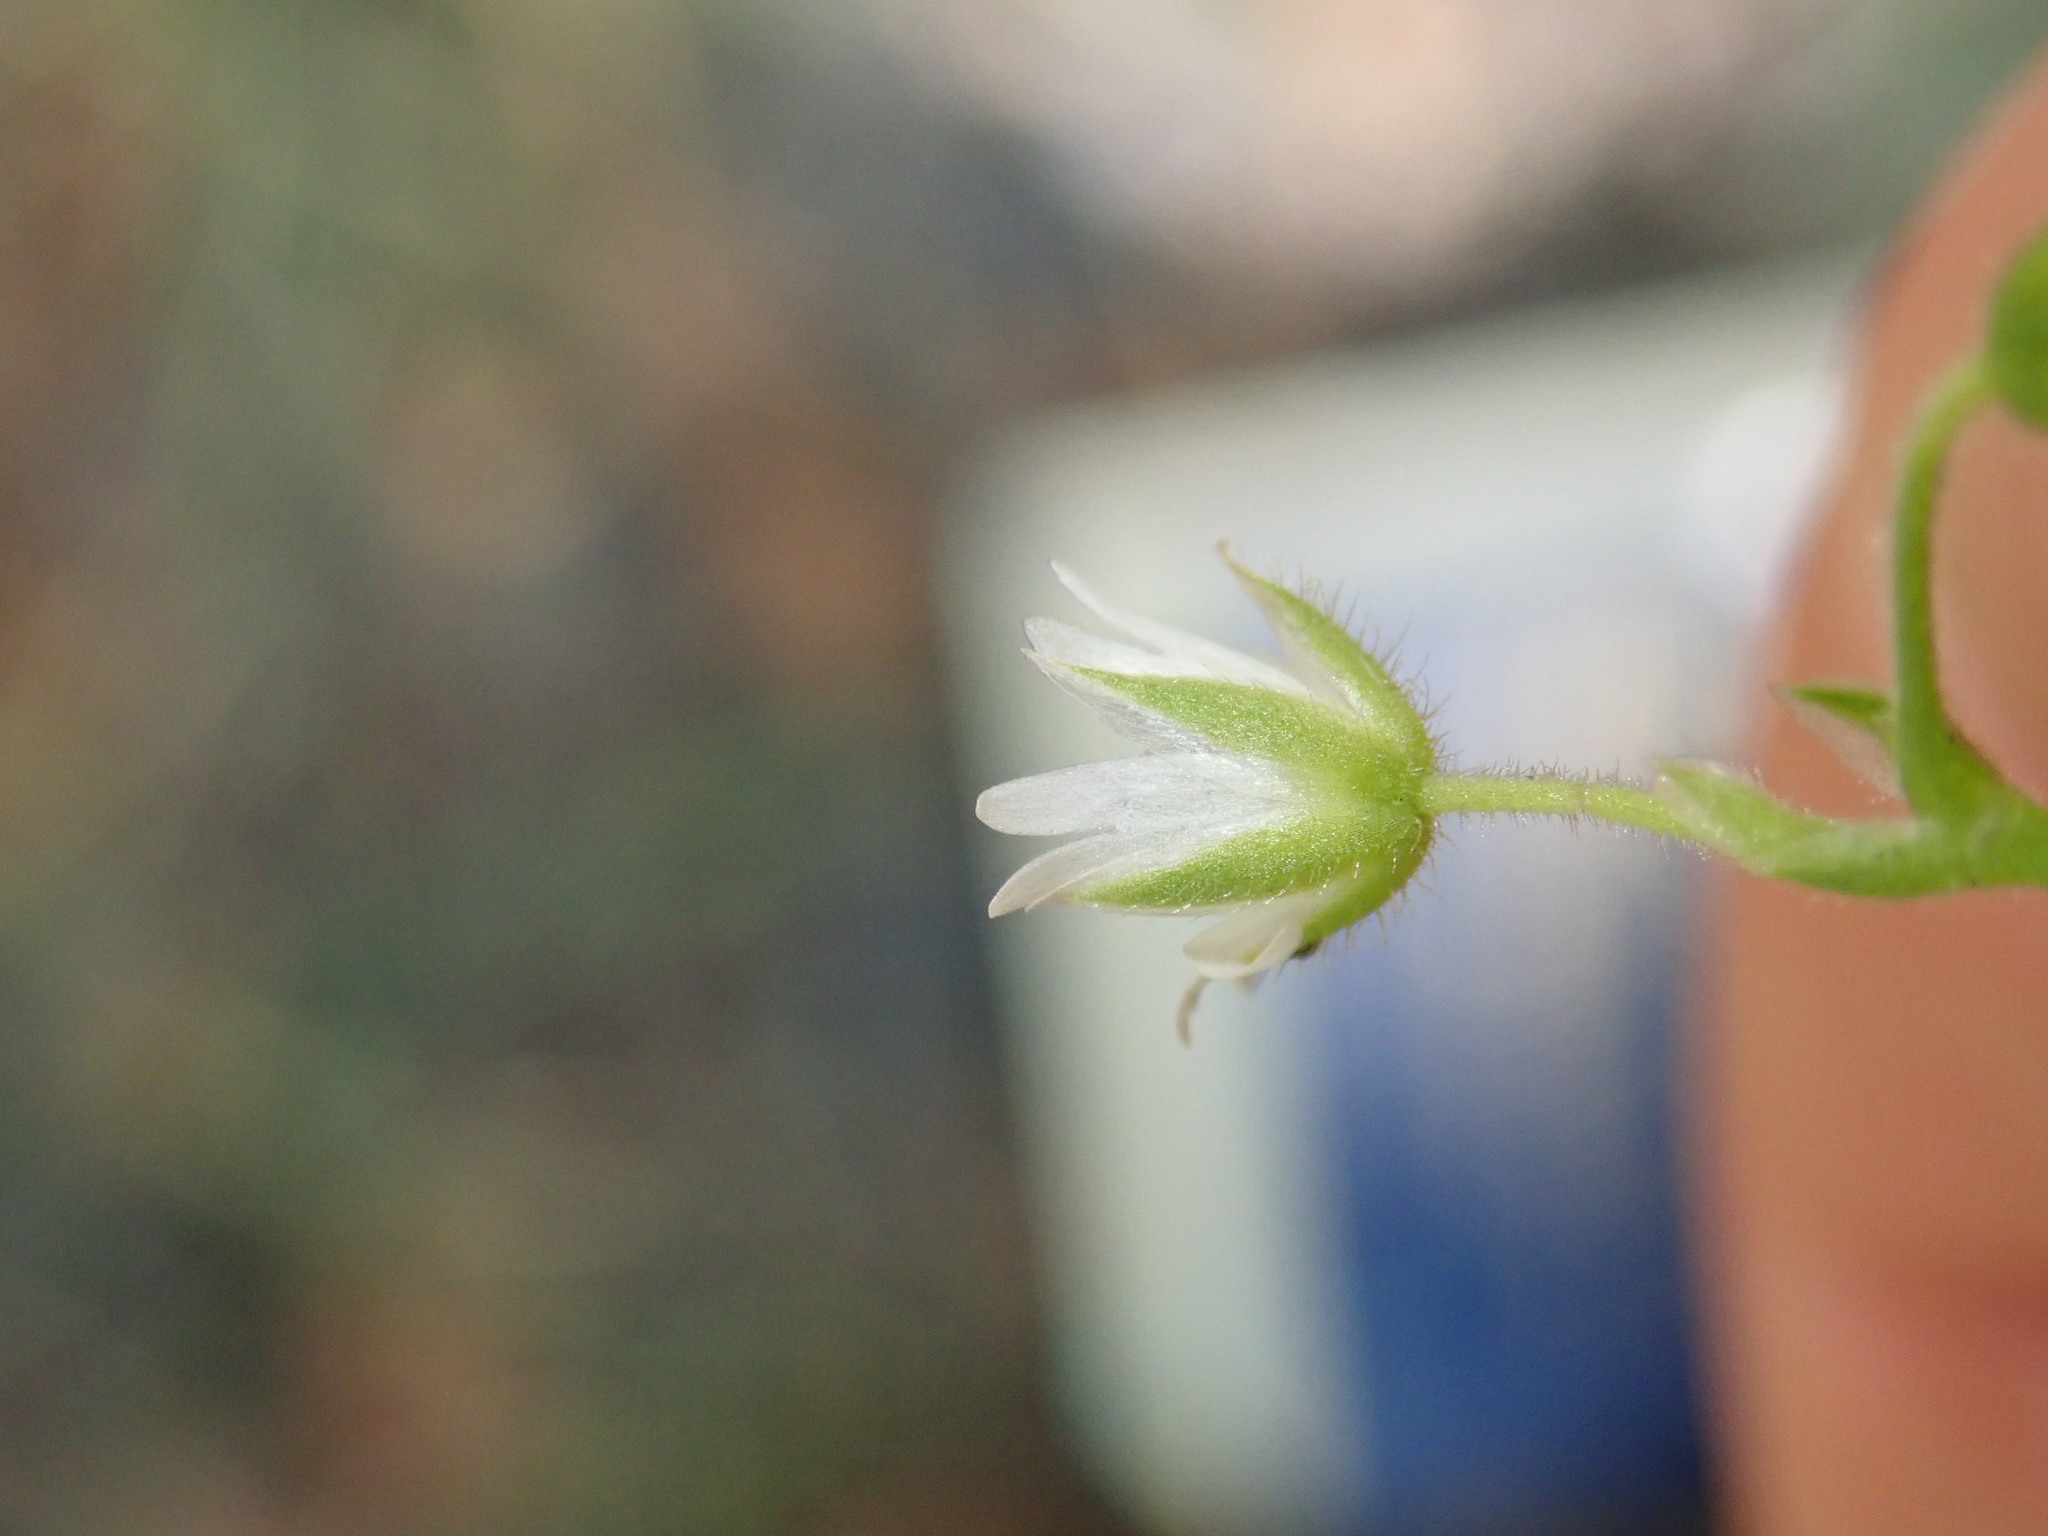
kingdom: Plantae
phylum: Tracheophyta
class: Magnoliopsida
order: Caryophyllales
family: Caryophyllaceae
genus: Cerastium
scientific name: Cerastium holosteoides
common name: Big chickweed
